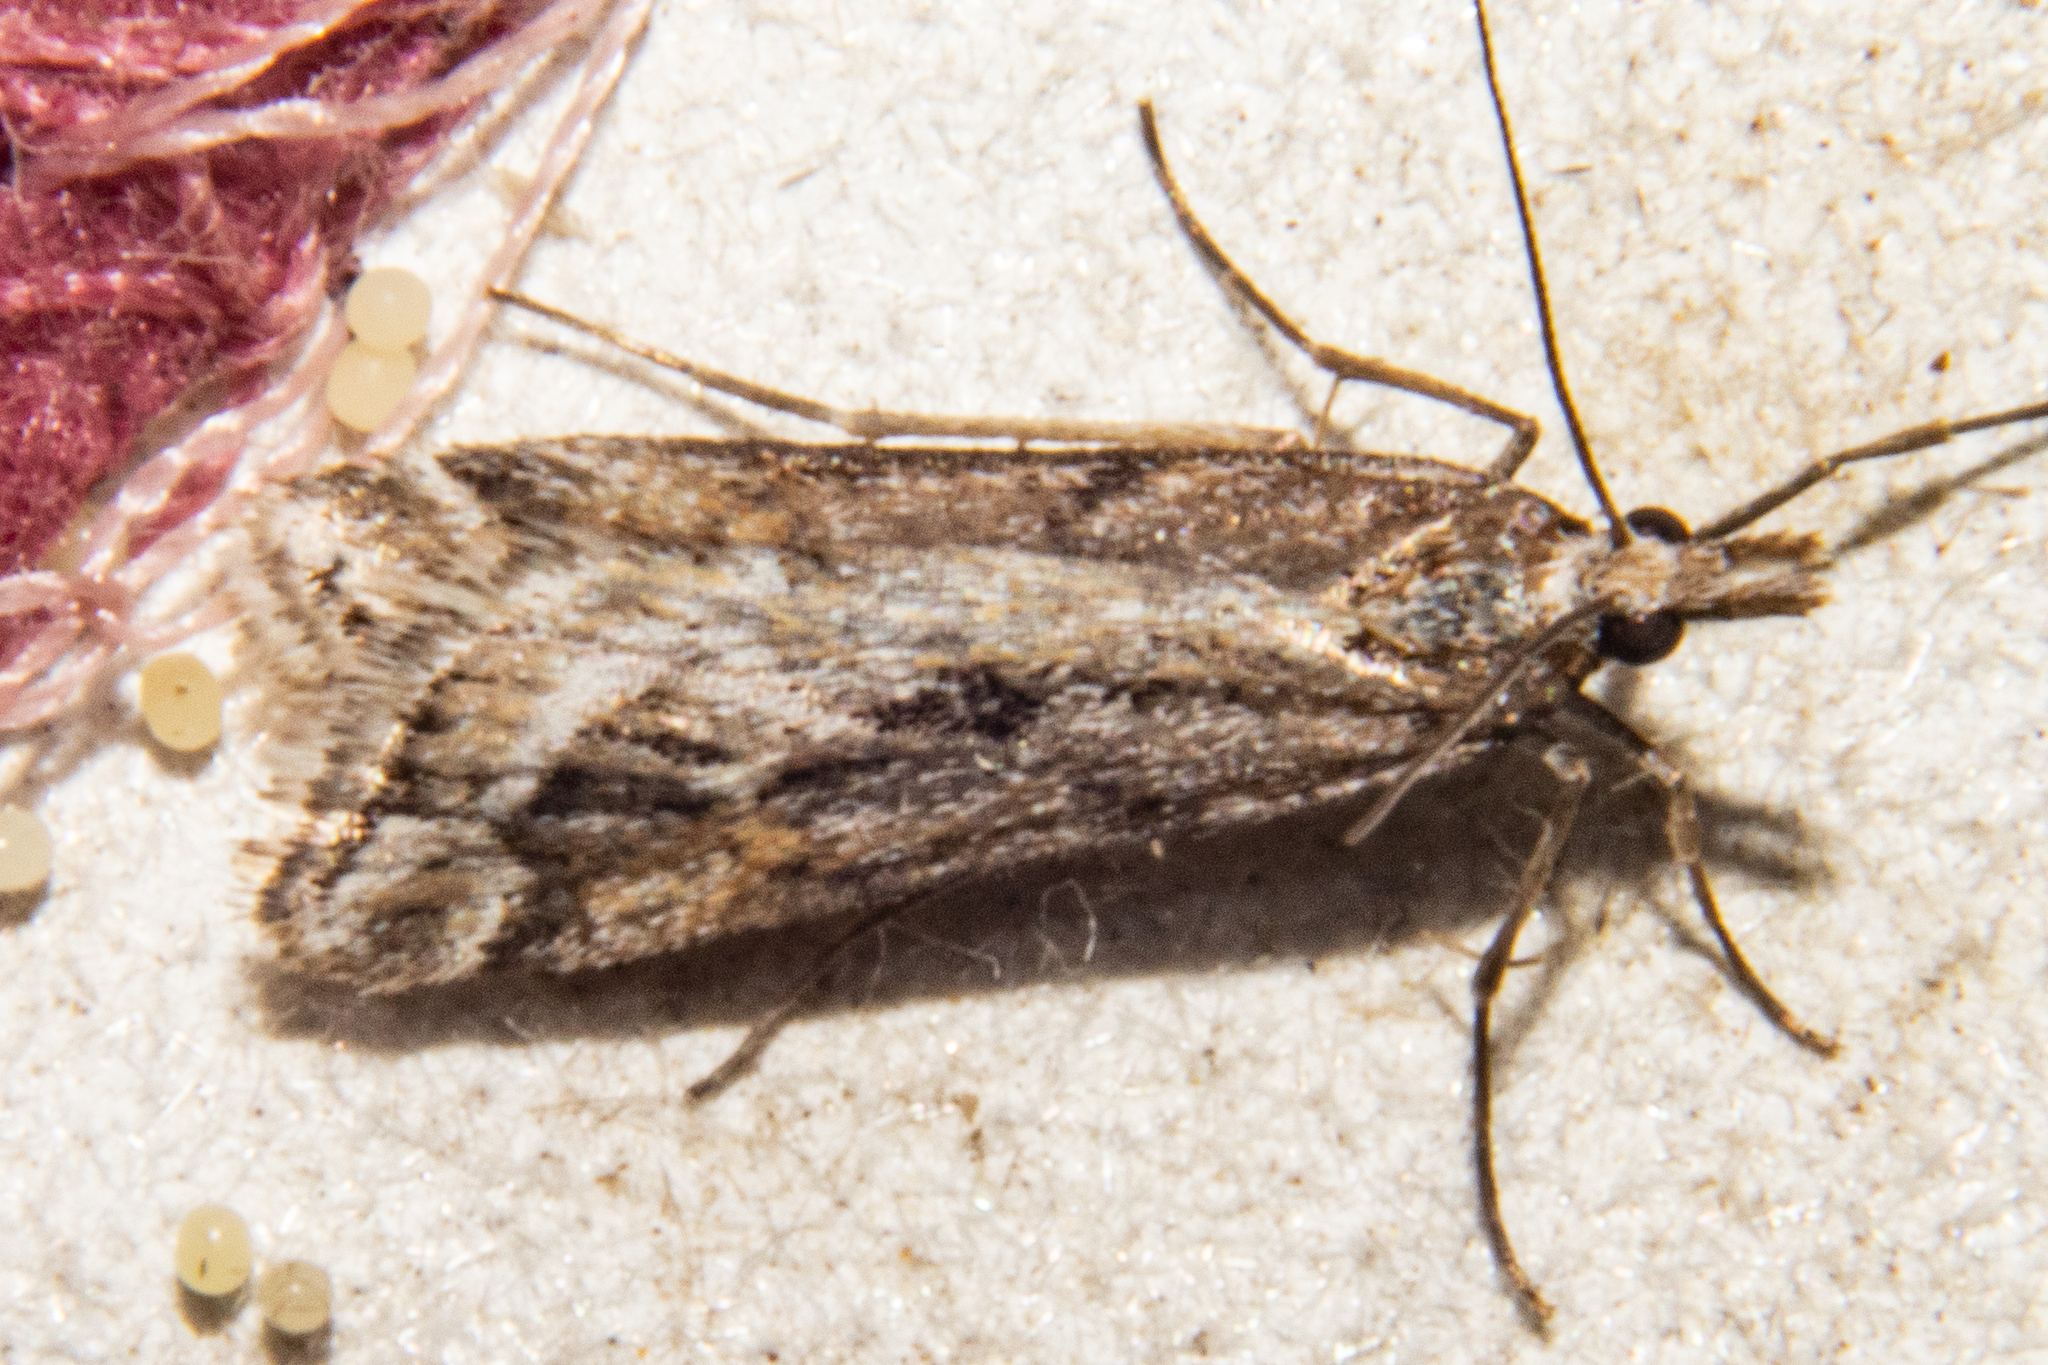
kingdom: Animalia
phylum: Arthropoda
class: Insecta
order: Lepidoptera
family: Crambidae
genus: Scoparia
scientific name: Scoparia exilis
